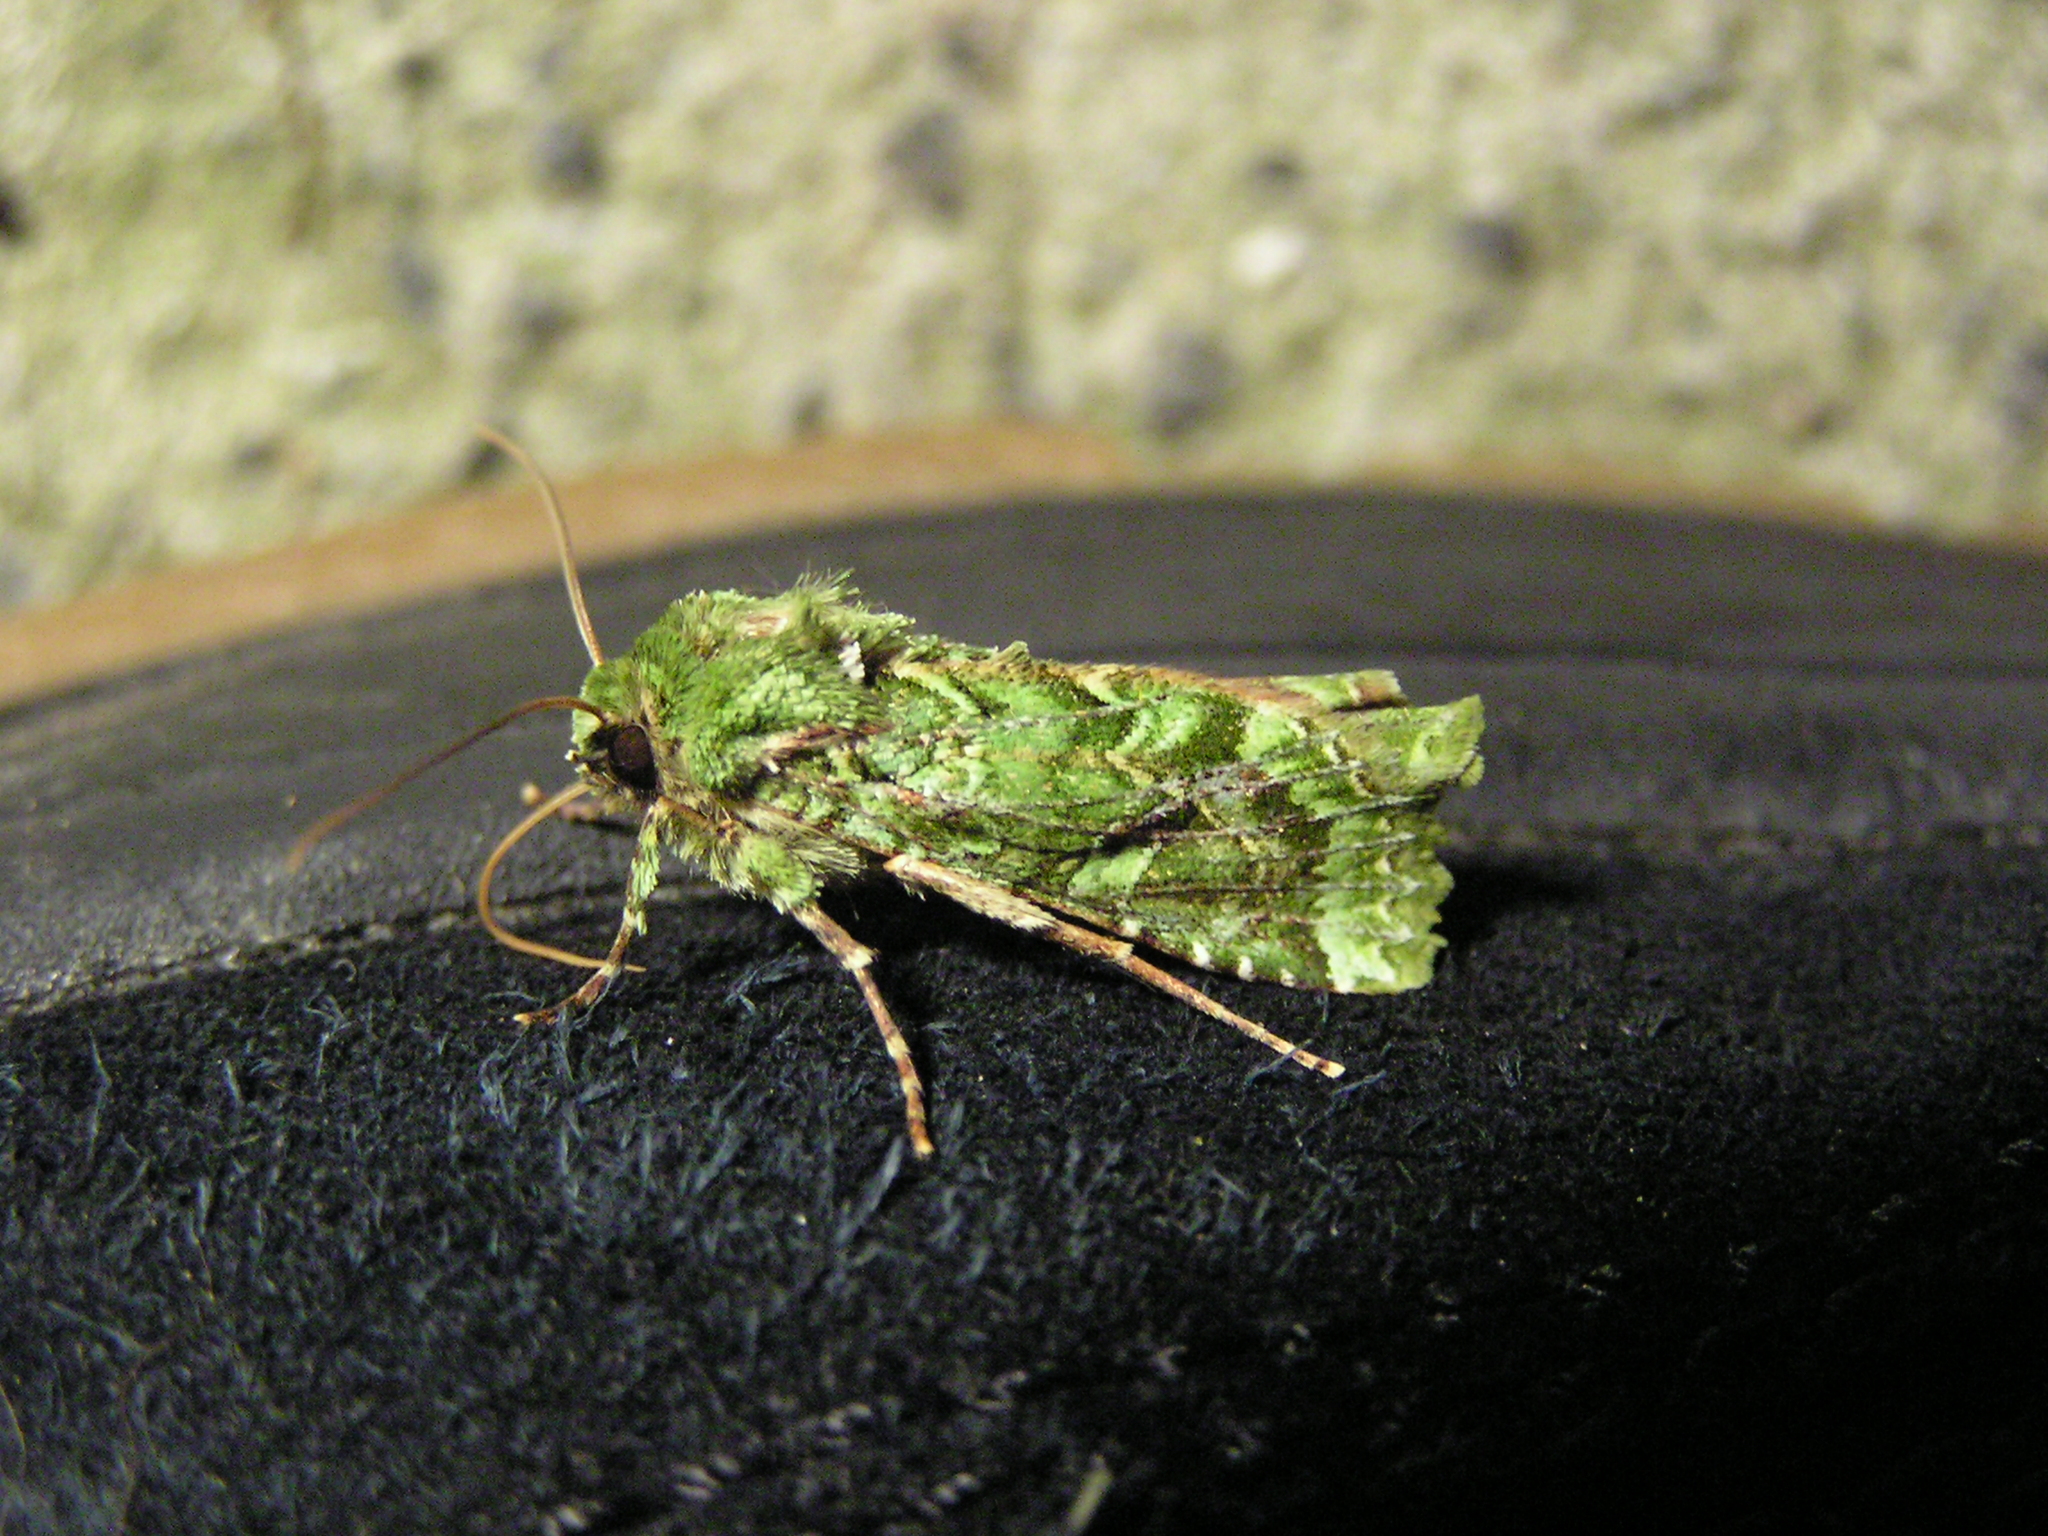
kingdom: Animalia
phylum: Arthropoda
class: Insecta
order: Lepidoptera
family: Noctuidae
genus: Feredayia
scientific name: Feredayia grammosa
